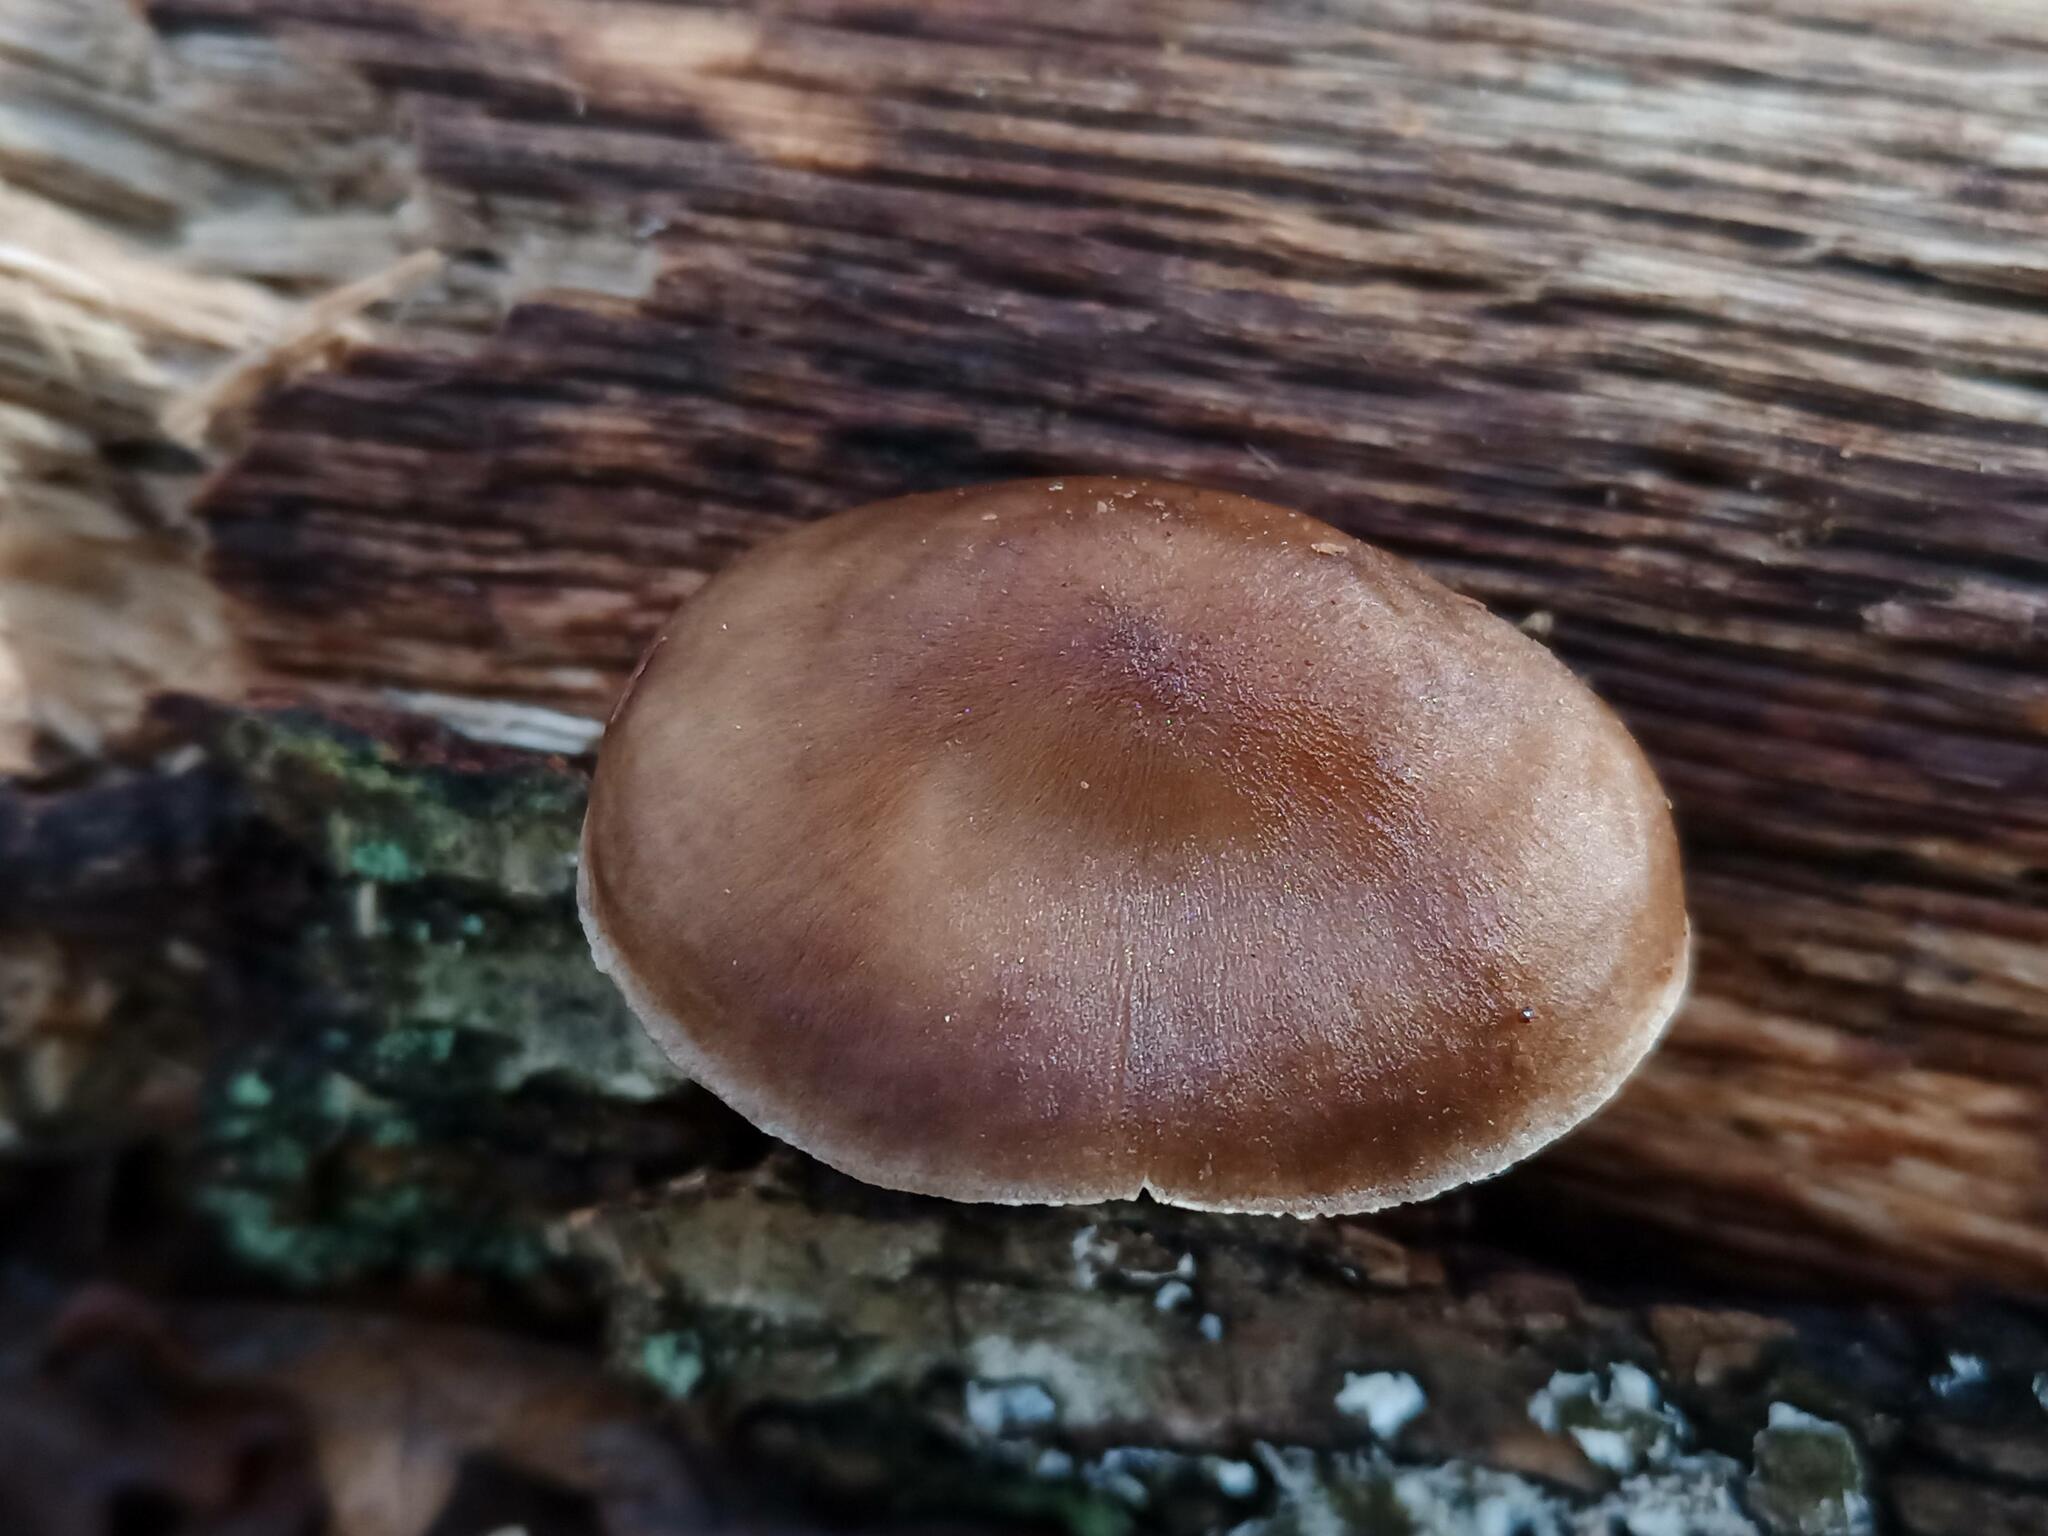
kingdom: Fungi
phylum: Basidiomycota
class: Agaricomycetes
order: Agaricales
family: Pluteaceae
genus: Pluteus
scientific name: Pluteus cervinus
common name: Deer shield
